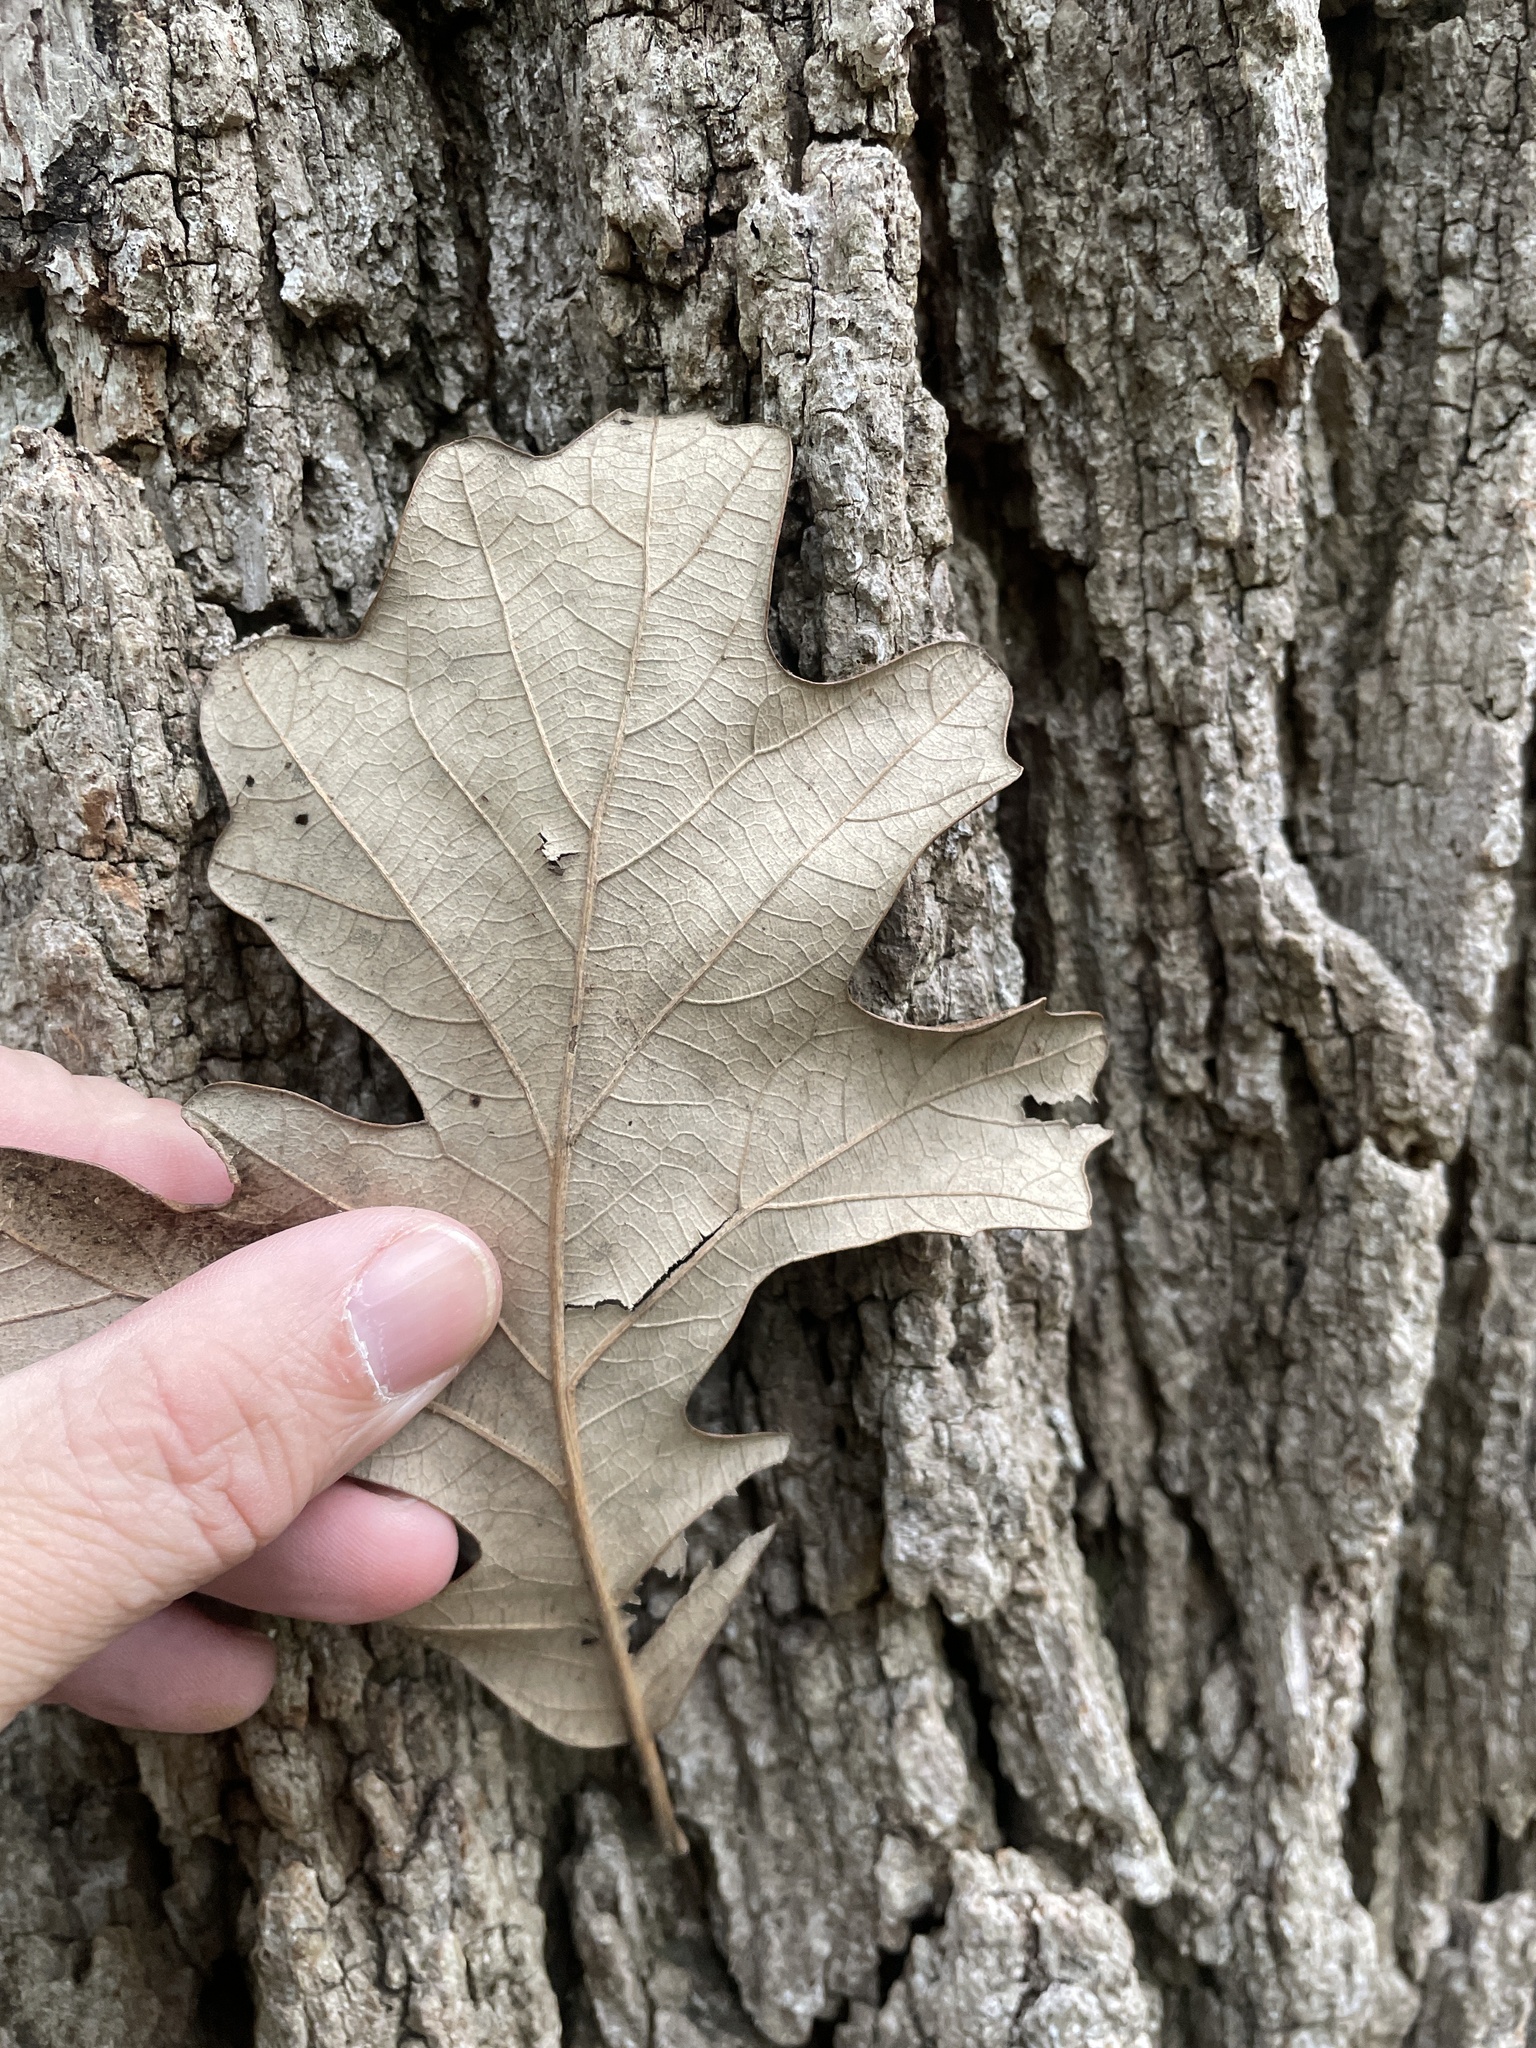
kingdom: Plantae
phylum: Tracheophyta
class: Magnoliopsida
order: Fagales
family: Fagaceae
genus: Quercus
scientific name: Quercus macrocarpa
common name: Bur oak
